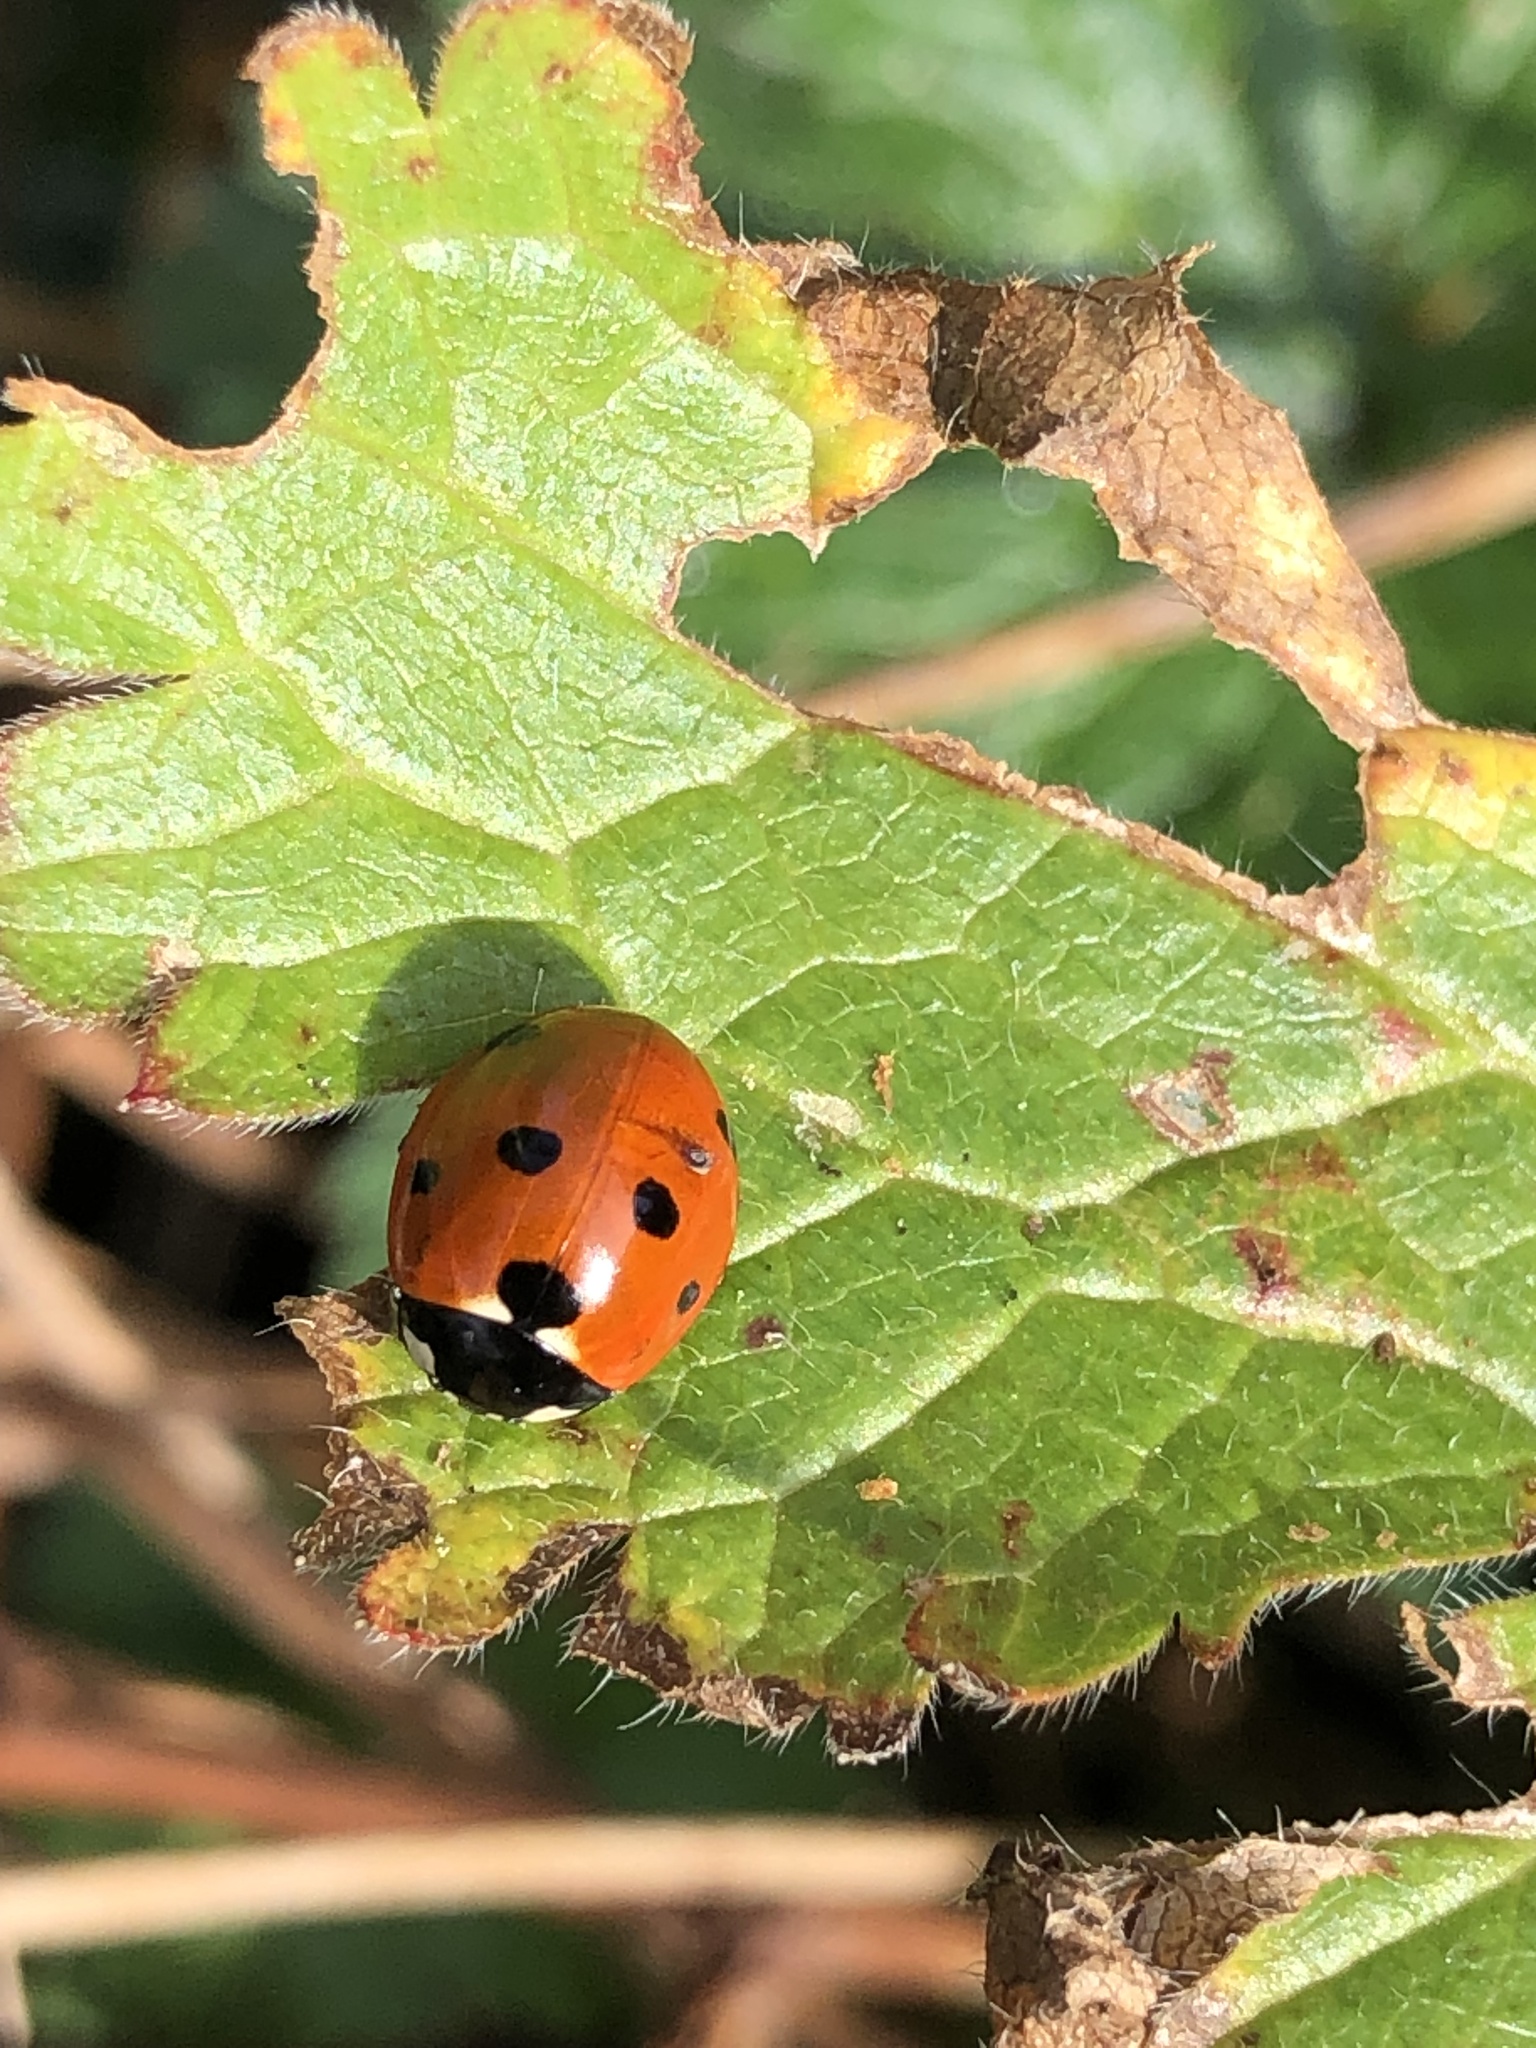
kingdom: Animalia
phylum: Arthropoda
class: Insecta
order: Coleoptera
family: Coccinellidae
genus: Coccinella
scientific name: Coccinella septempunctata
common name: Sevenspotted lady beetle
